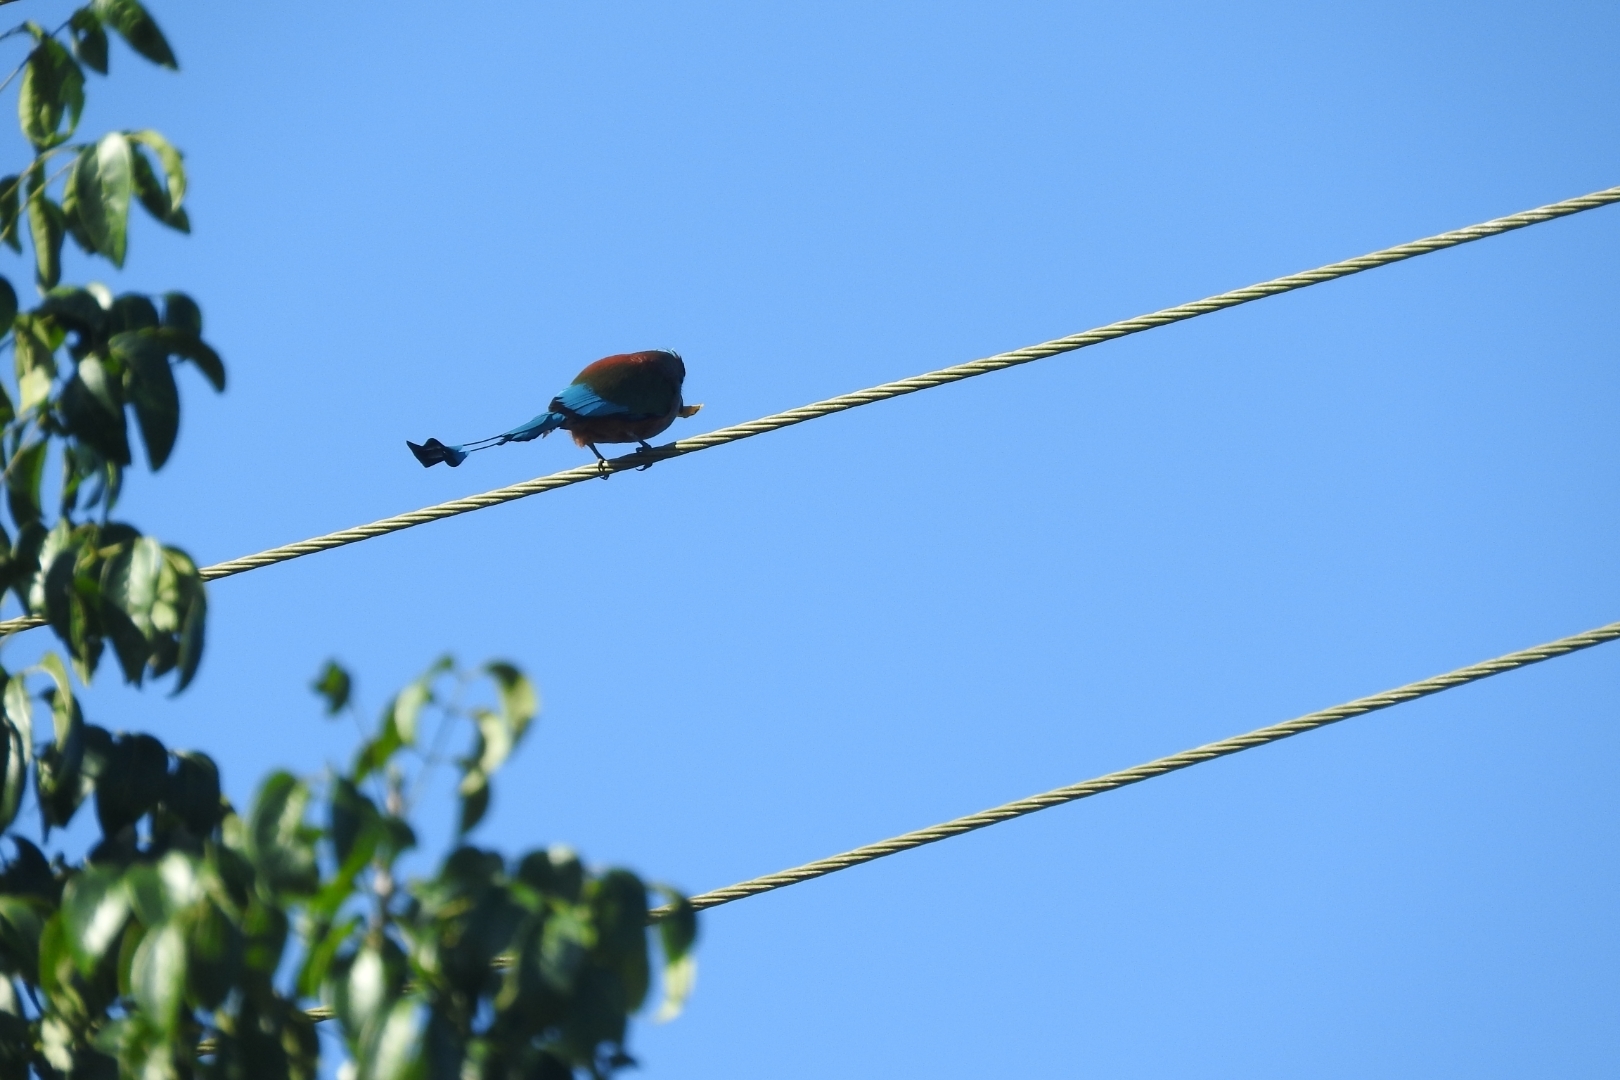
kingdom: Animalia
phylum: Chordata
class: Aves
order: Coraciiformes
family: Momotidae
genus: Eumomota
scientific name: Eumomota superciliosa
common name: Turquoise-browed motmot
